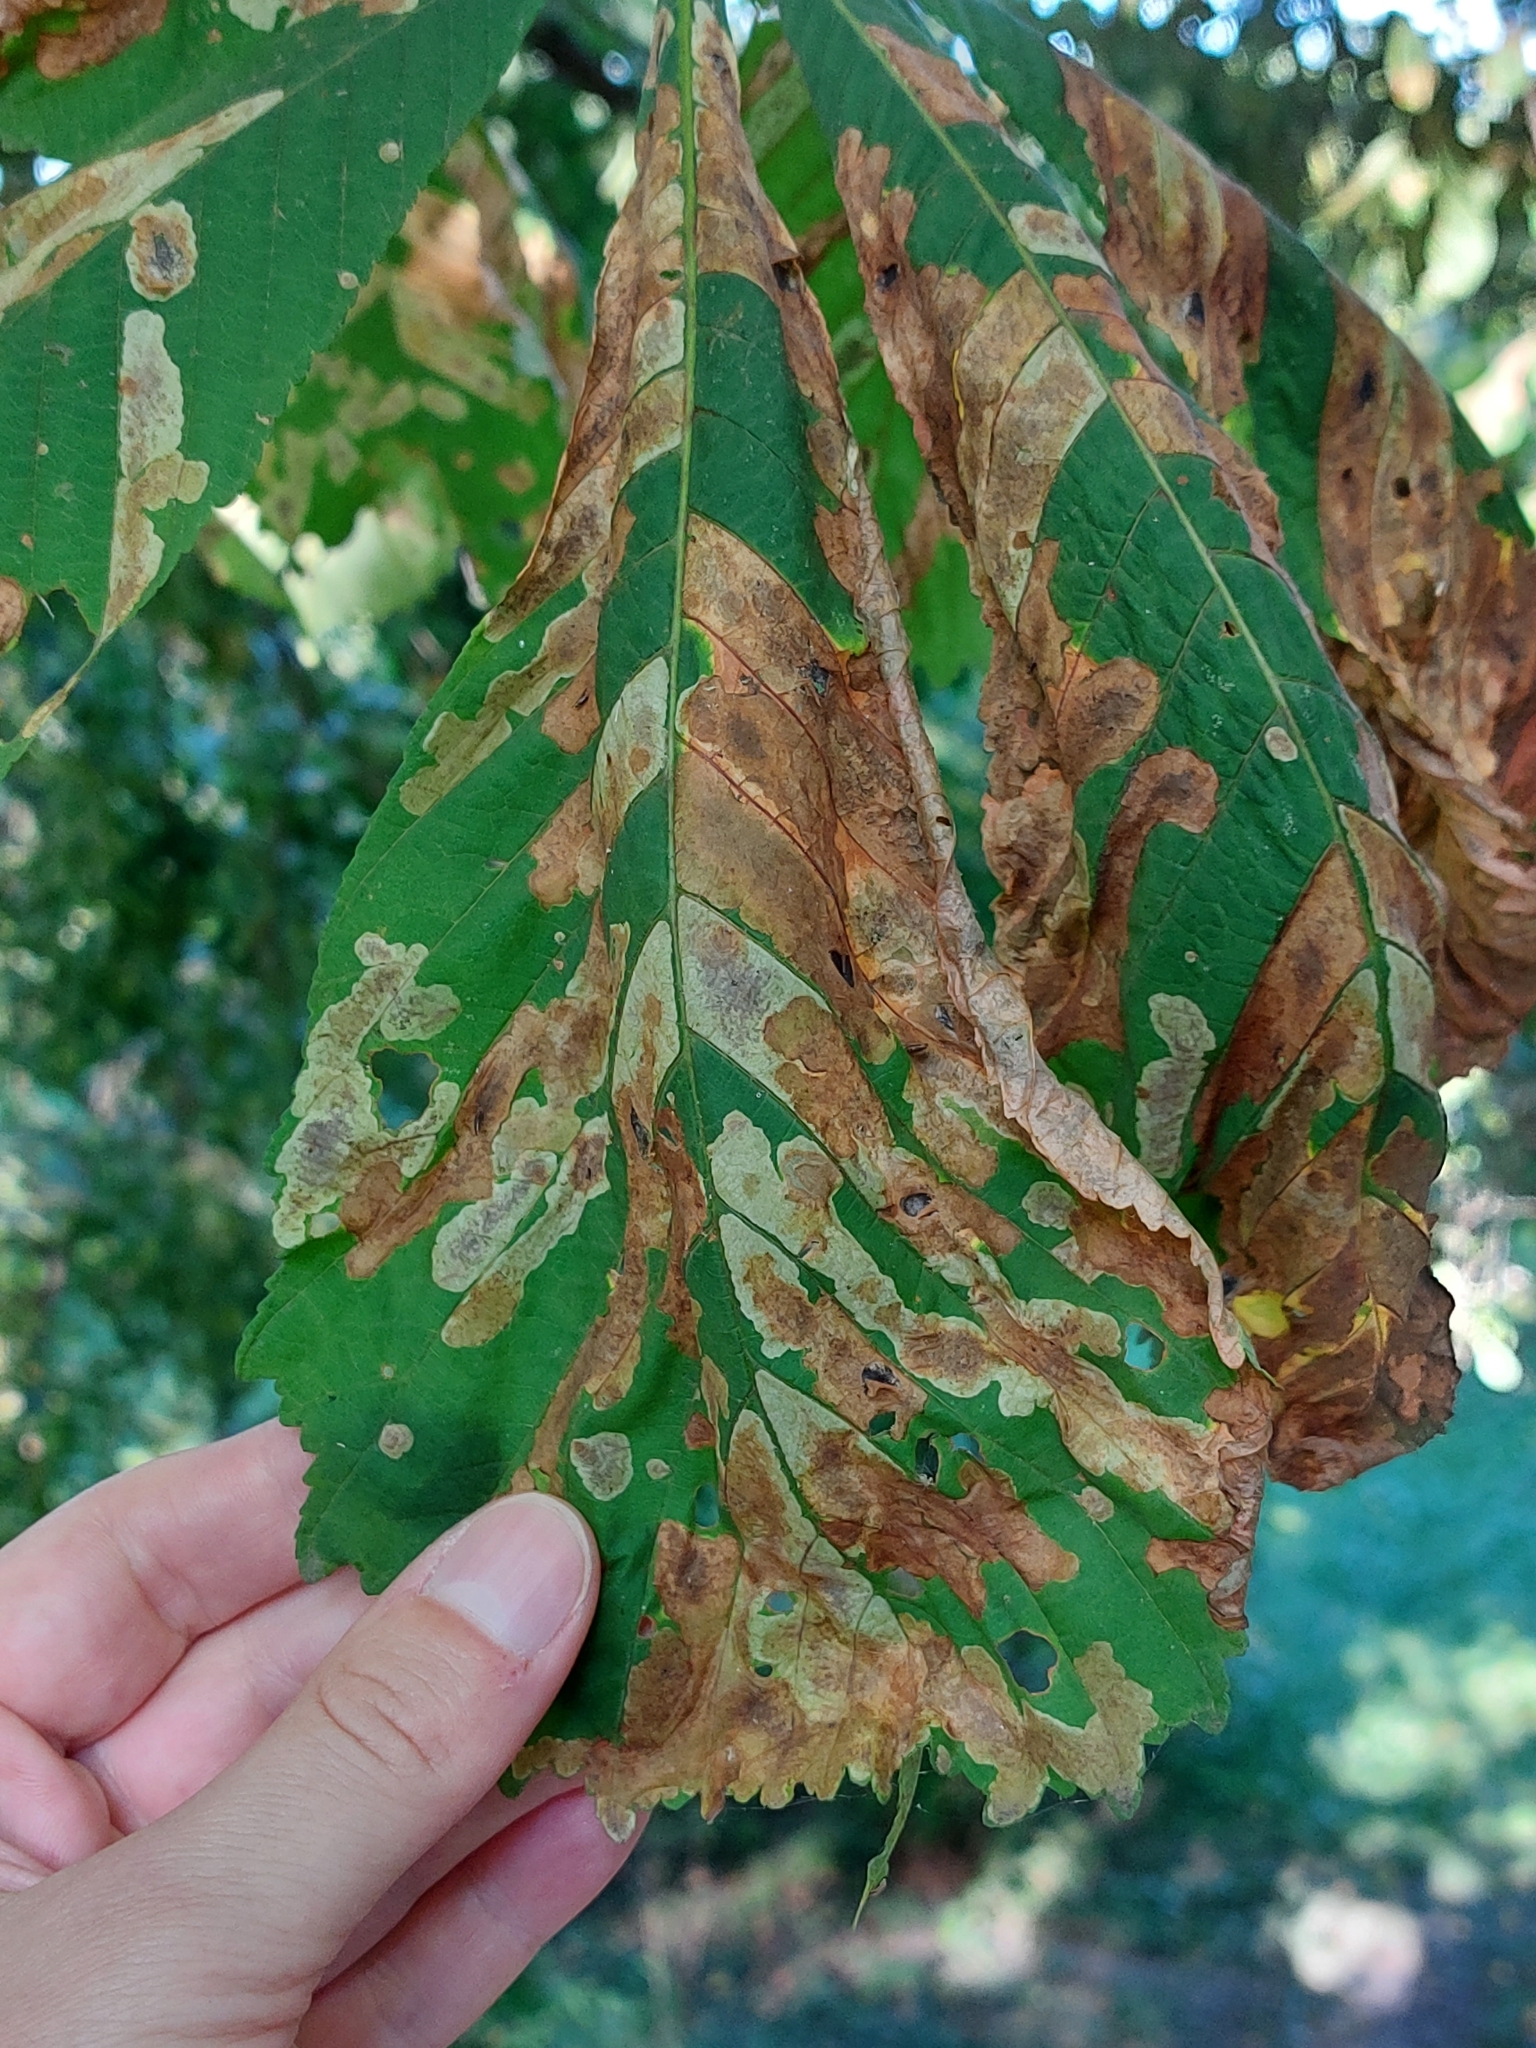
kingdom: Animalia
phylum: Arthropoda
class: Insecta
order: Lepidoptera
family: Gracillariidae
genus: Cameraria
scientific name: Cameraria ohridella
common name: Horse-chestnut leaf-miner
